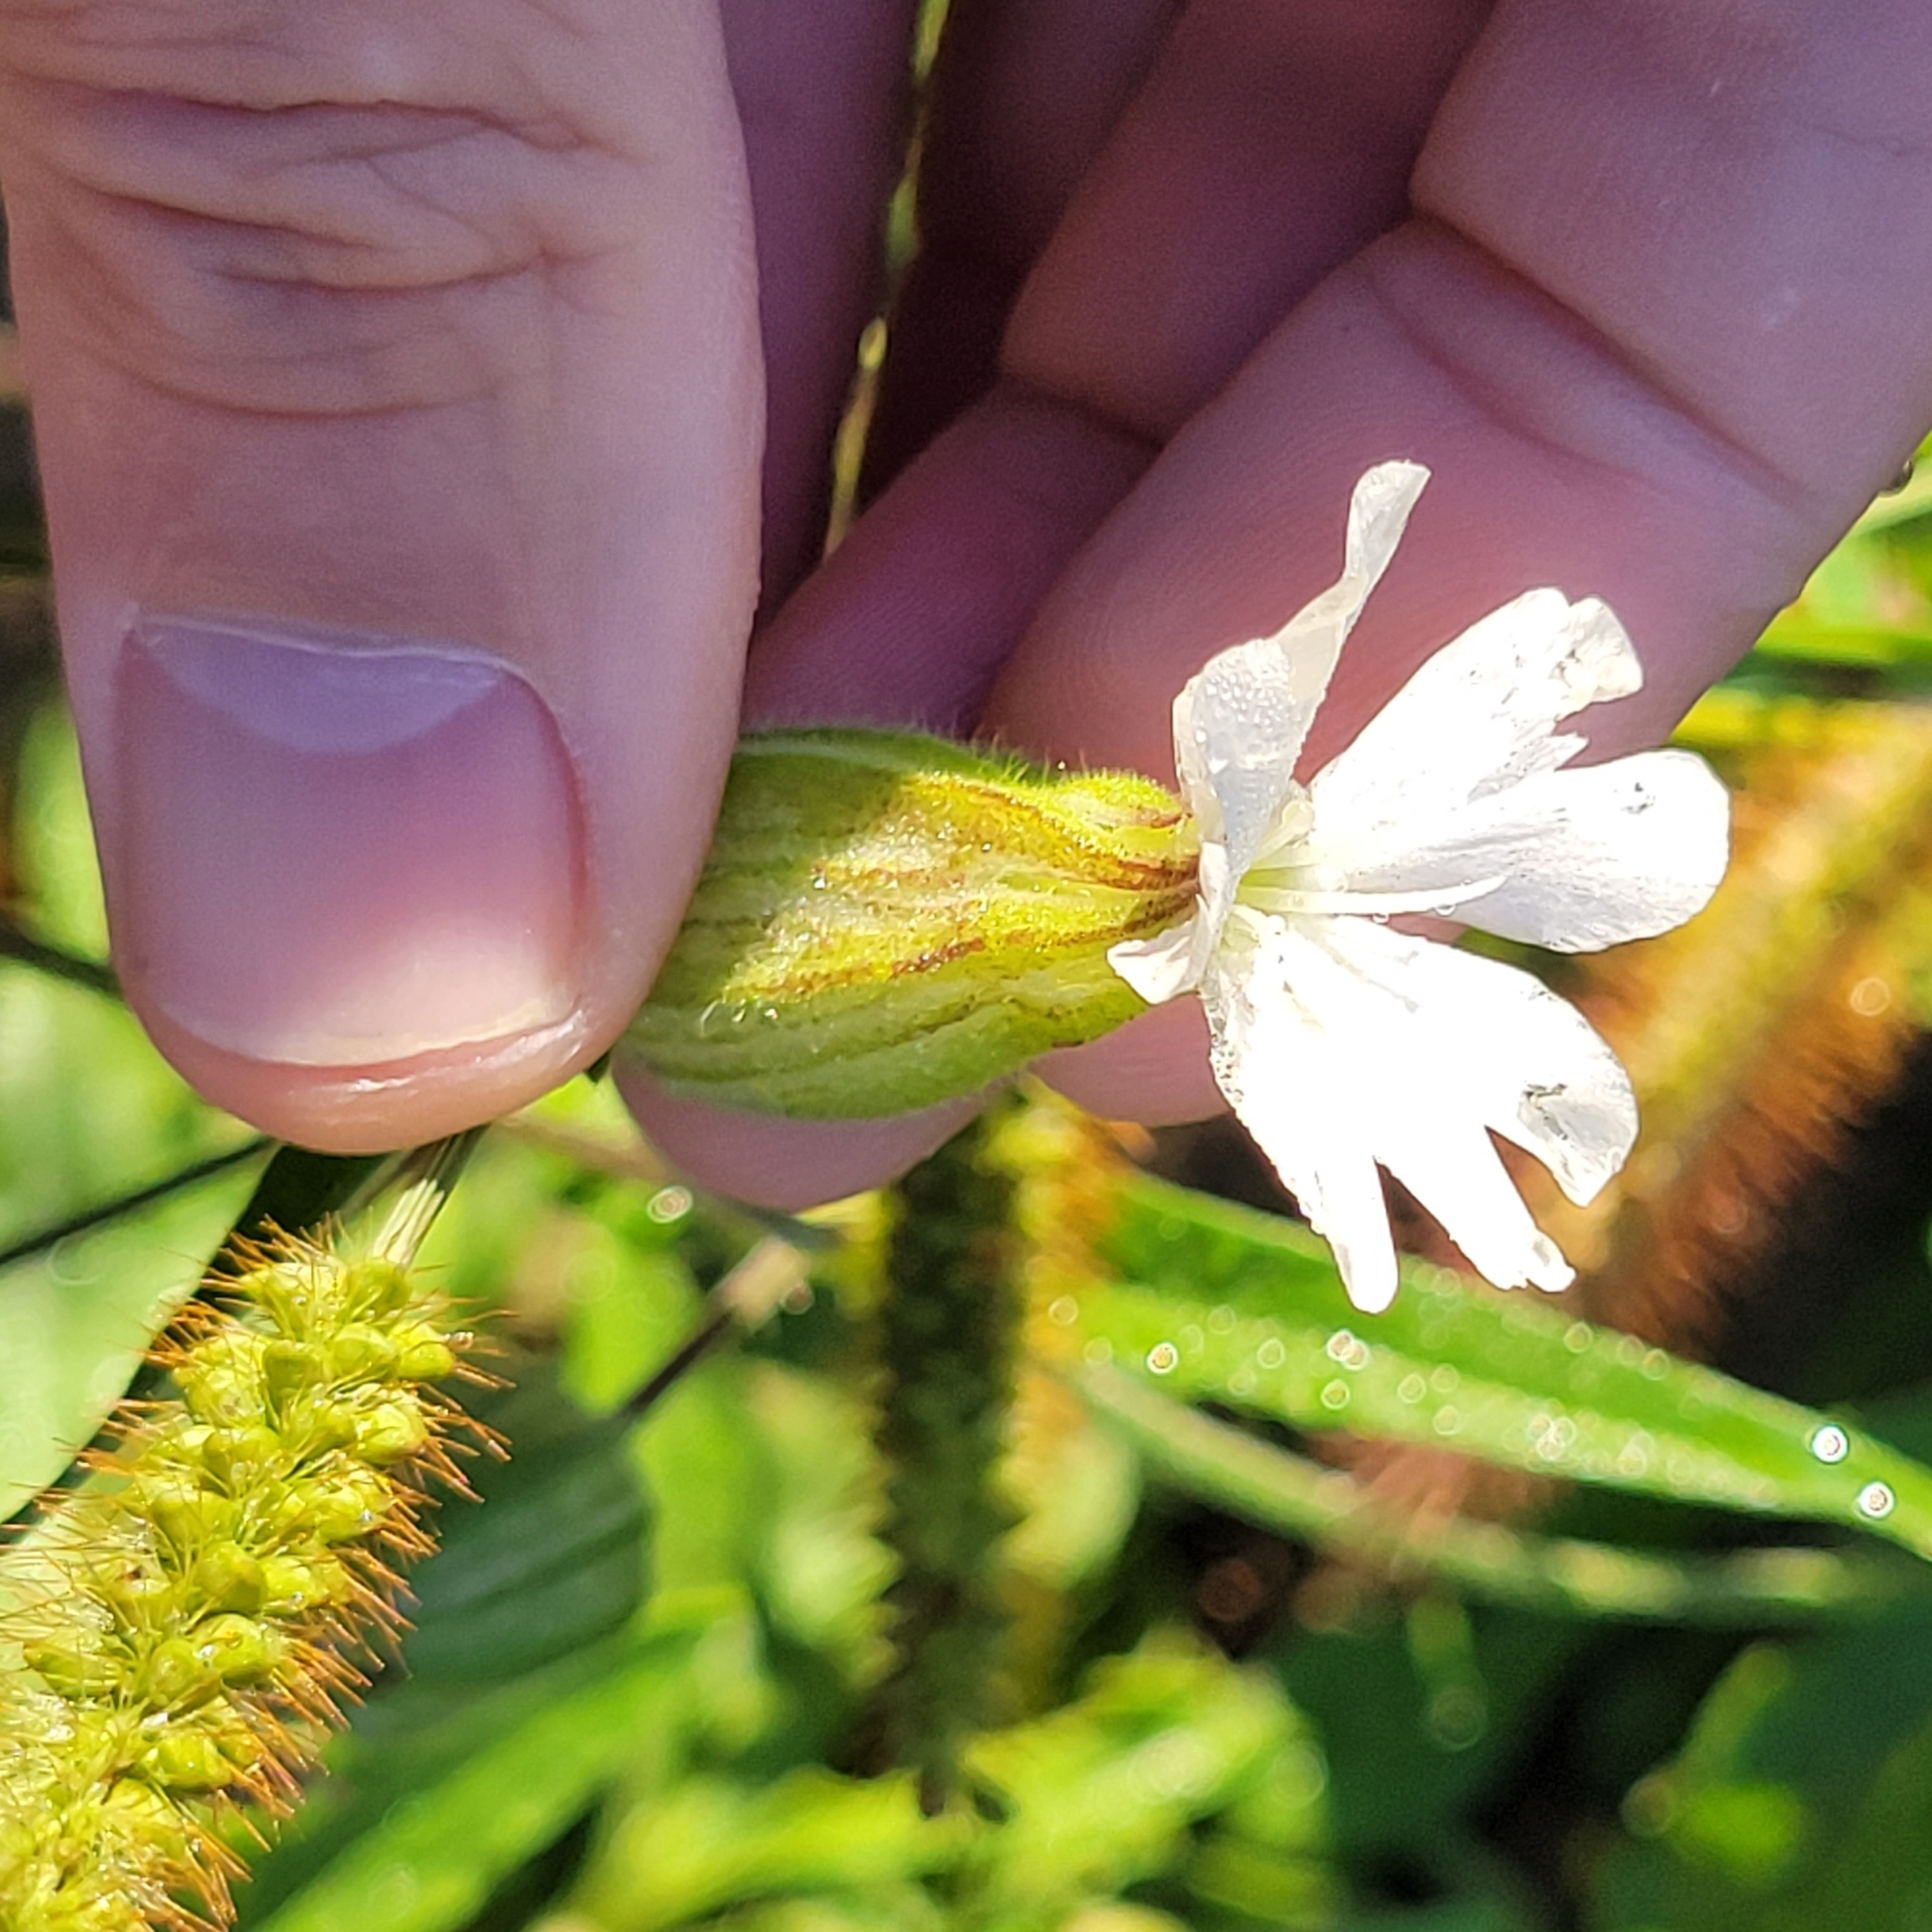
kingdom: Plantae
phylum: Tracheophyta
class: Magnoliopsida
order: Caryophyllales
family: Caryophyllaceae
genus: Silene
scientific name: Silene latifolia
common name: White campion
